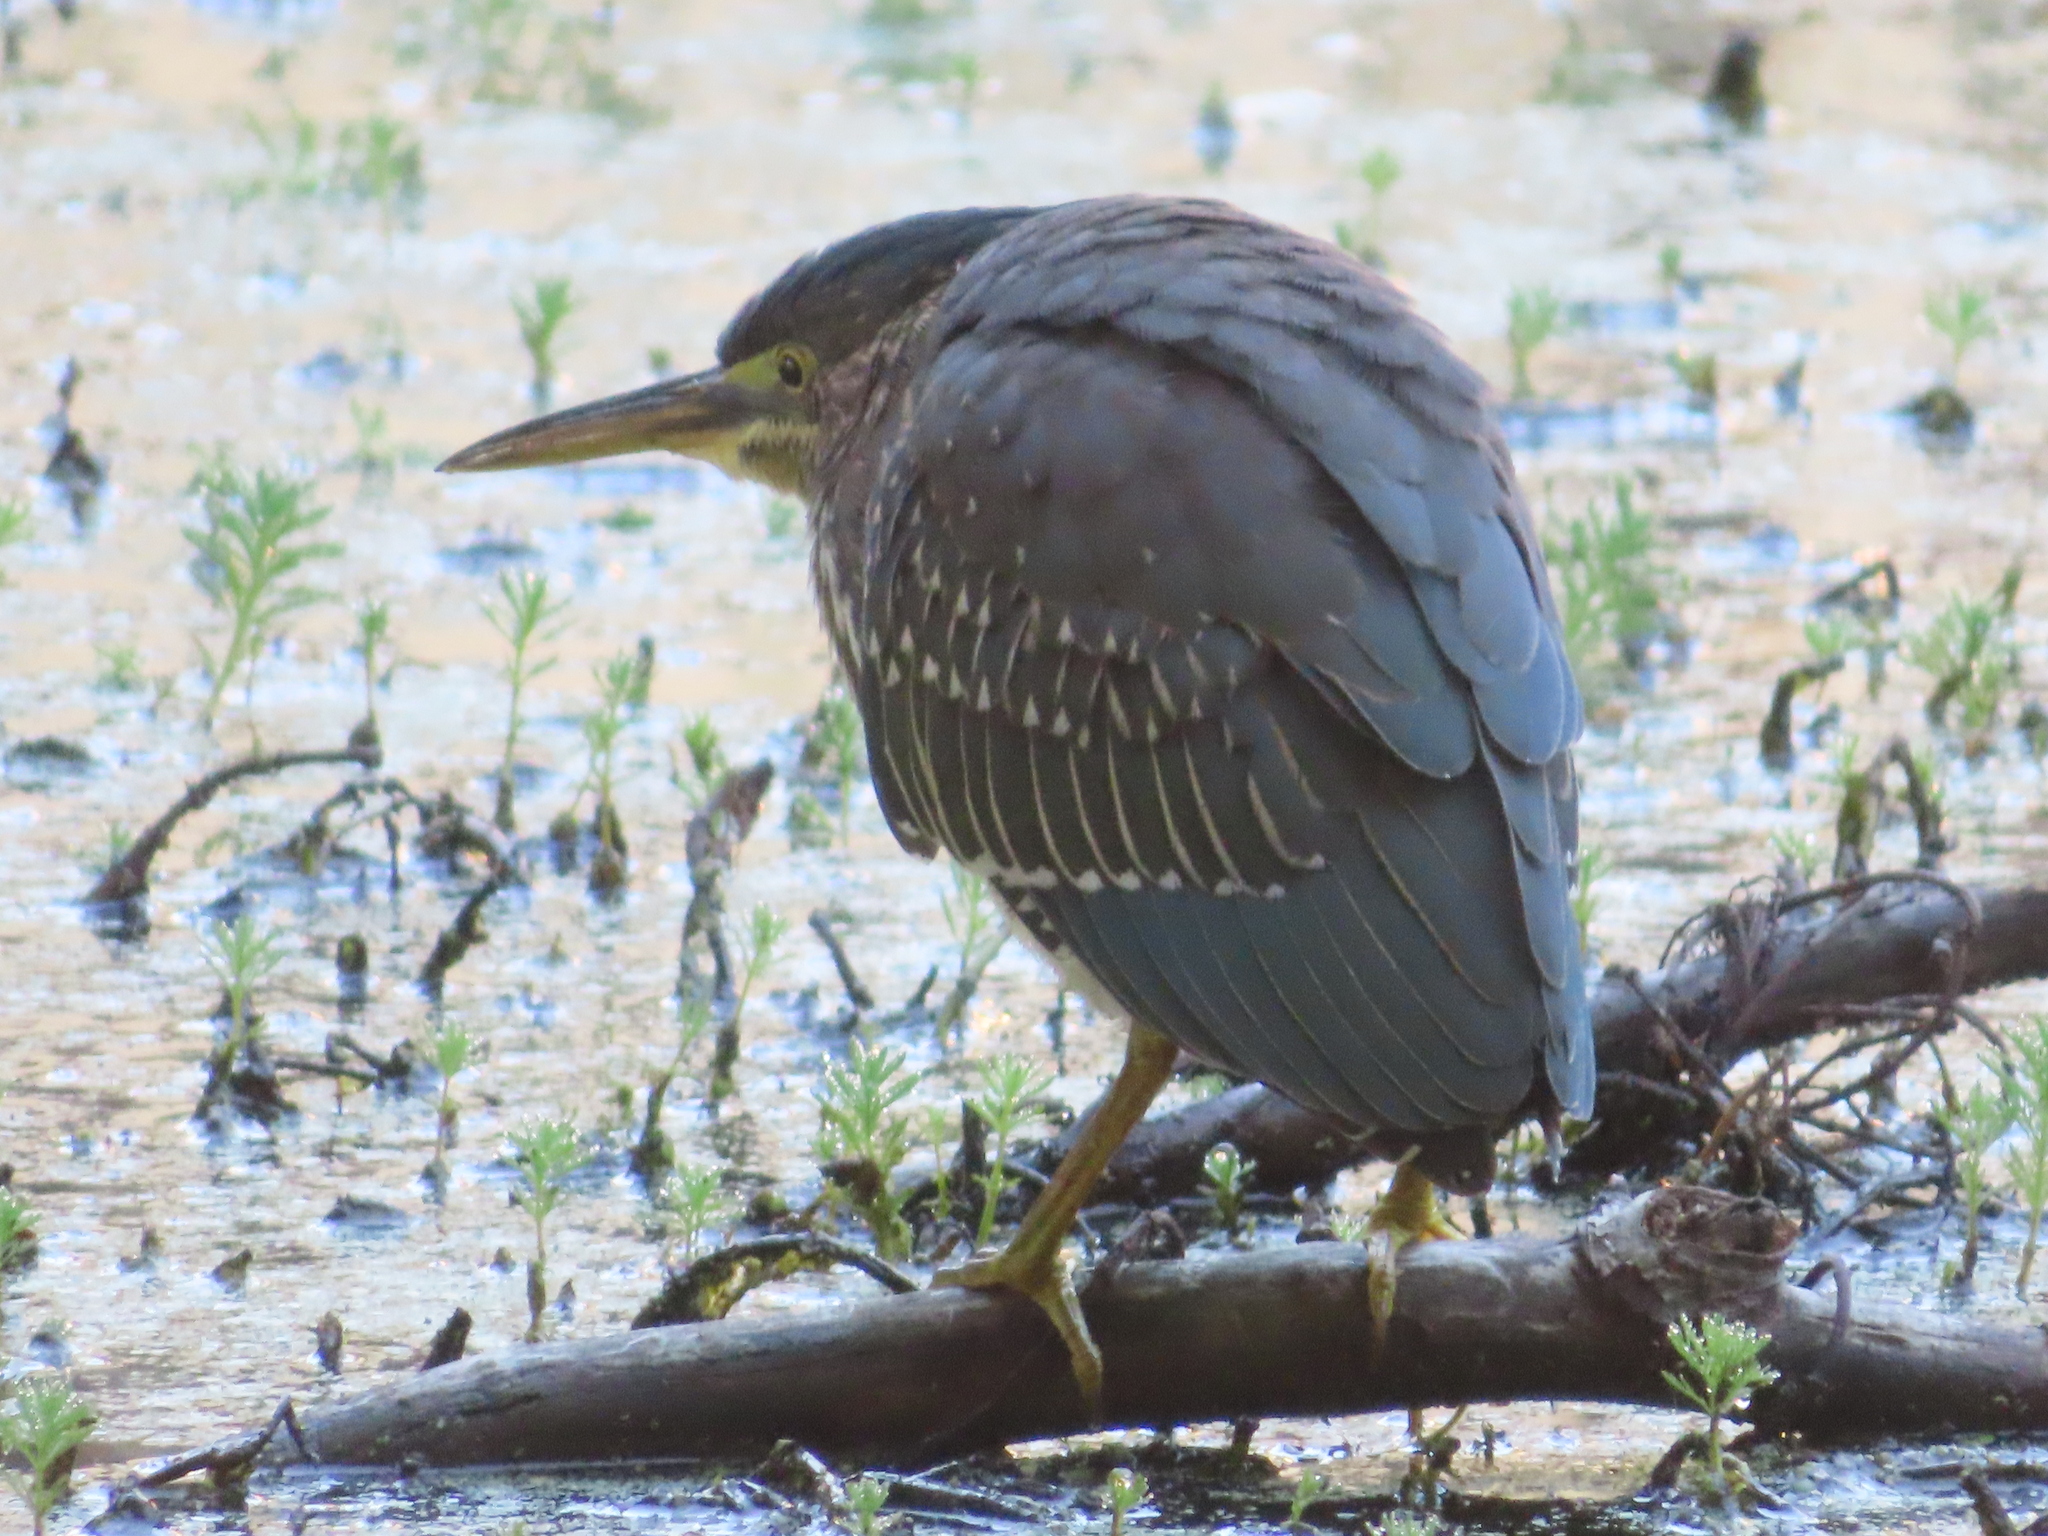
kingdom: Animalia
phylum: Chordata
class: Aves
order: Pelecaniformes
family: Ardeidae
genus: Butorides
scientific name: Butorides virescens
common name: Green heron
